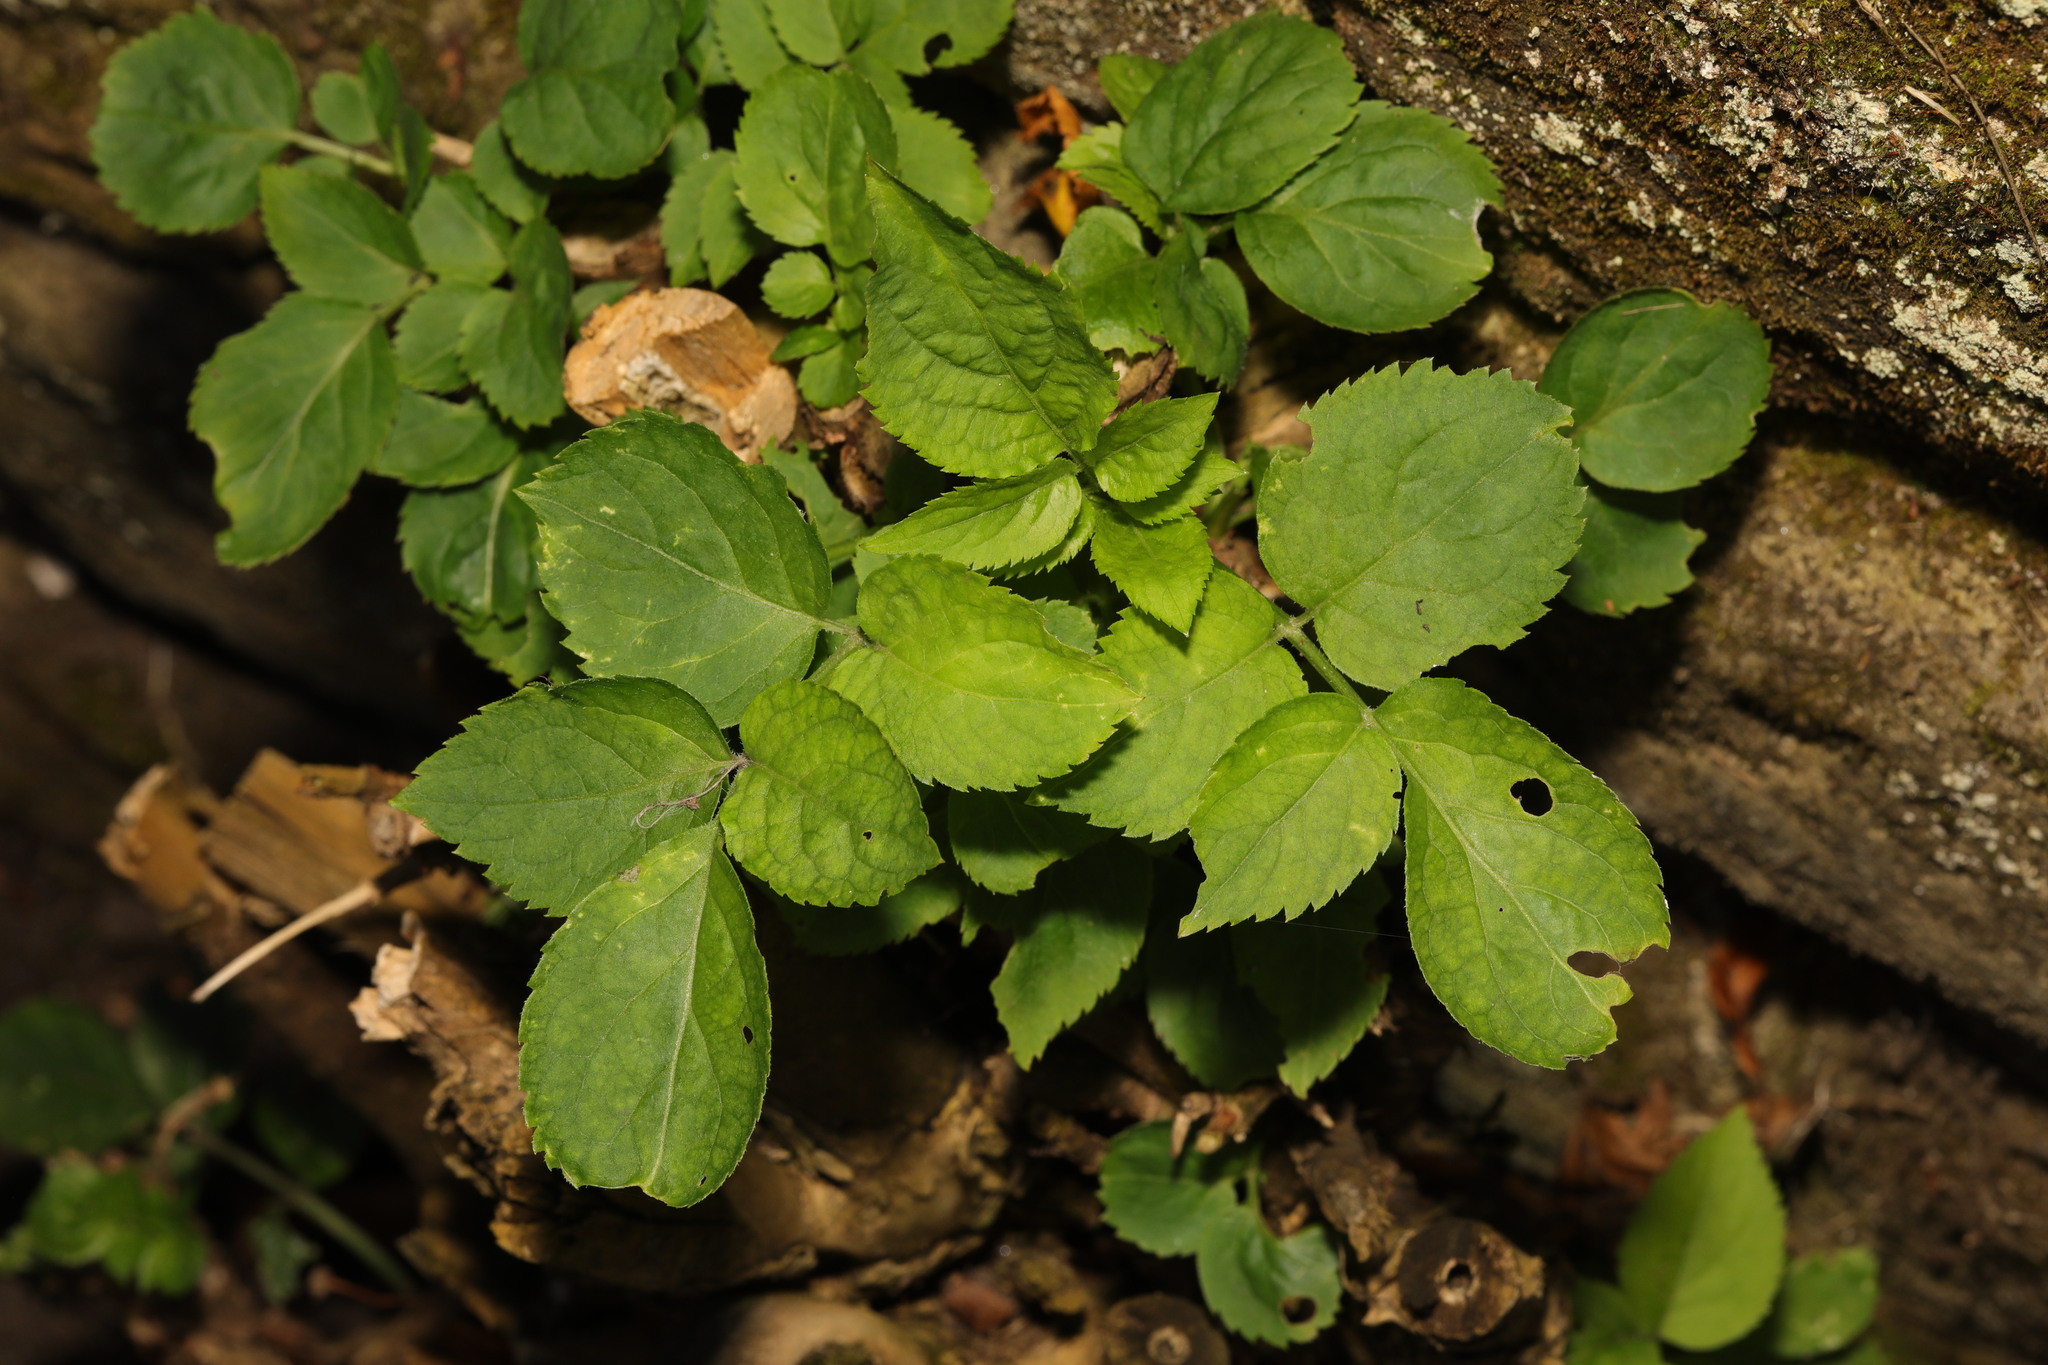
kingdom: Plantae
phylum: Tracheophyta
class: Magnoliopsida
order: Dipsacales
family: Viburnaceae
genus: Sambucus
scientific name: Sambucus nigra
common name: Elder
